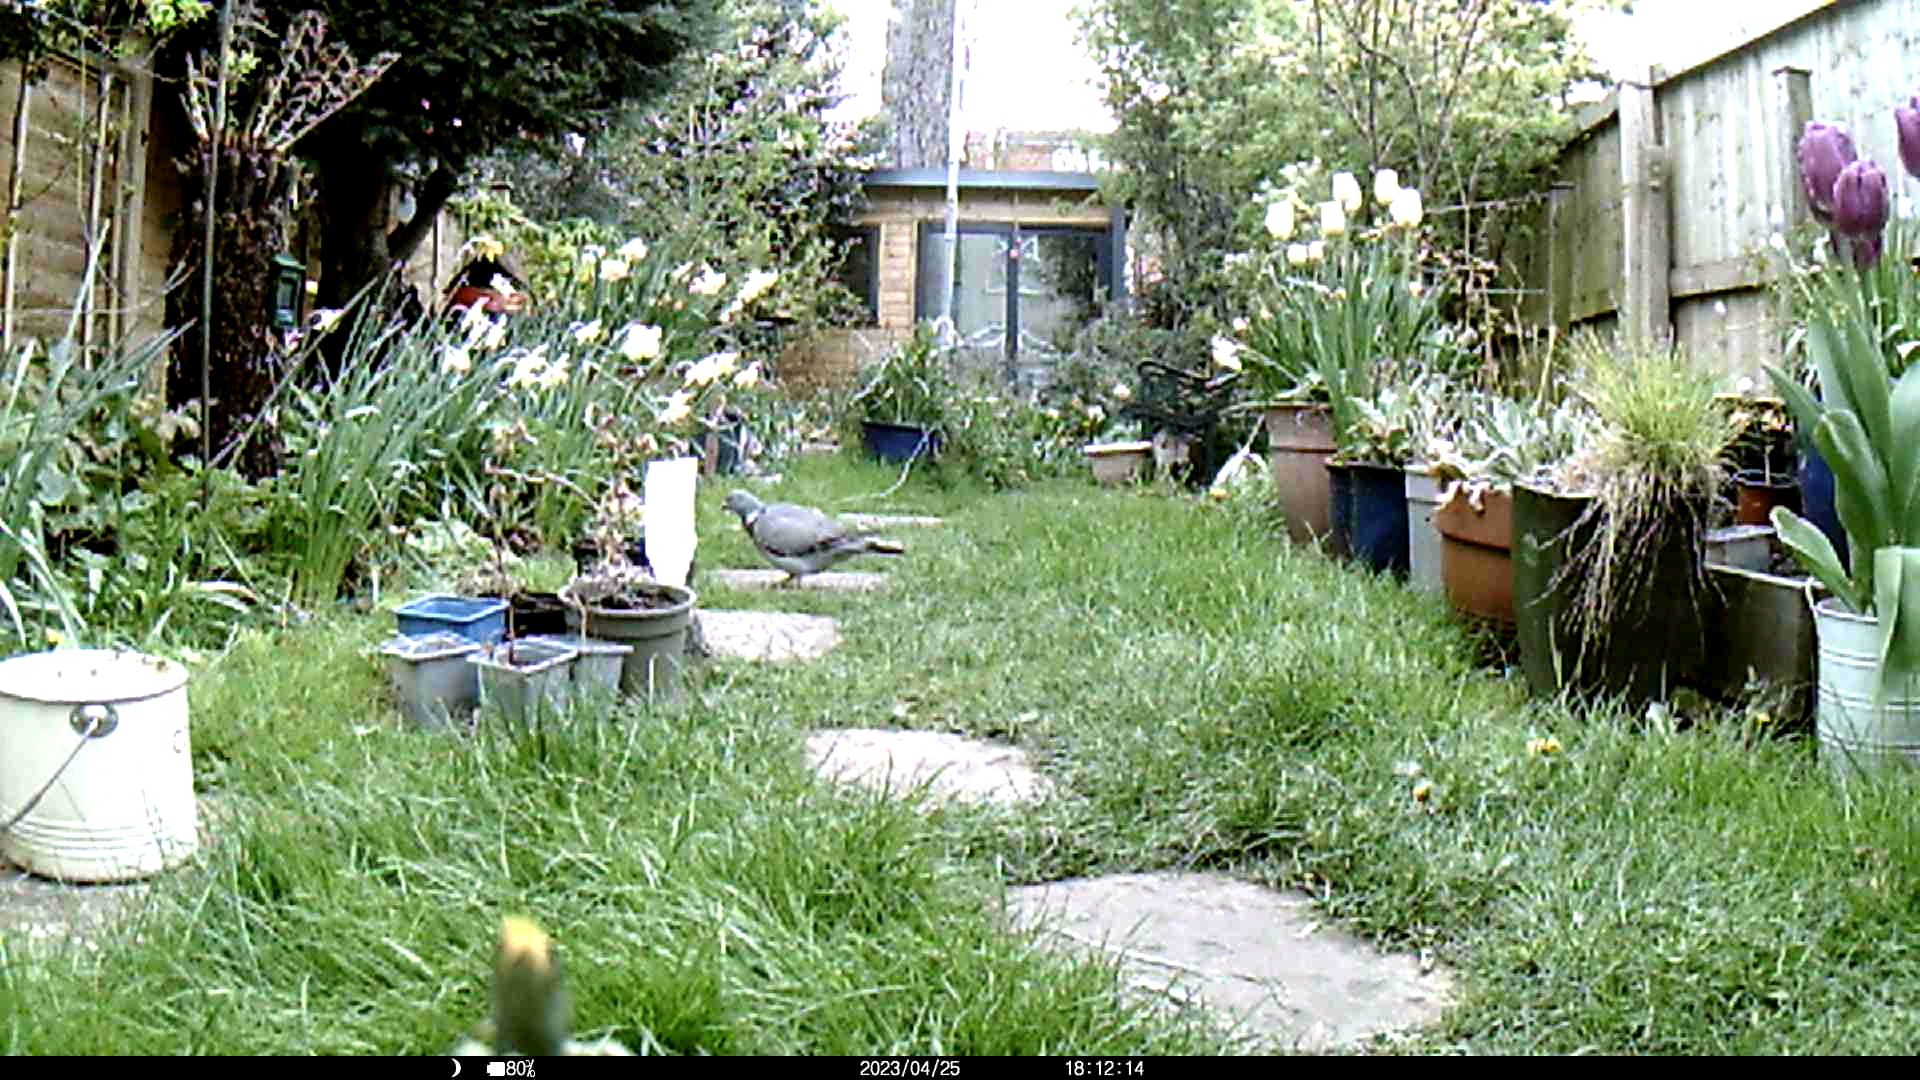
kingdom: Animalia
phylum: Chordata
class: Aves
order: Columbiformes
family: Columbidae
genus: Columba
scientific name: Columba palumbus
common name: Common wood pigeon
